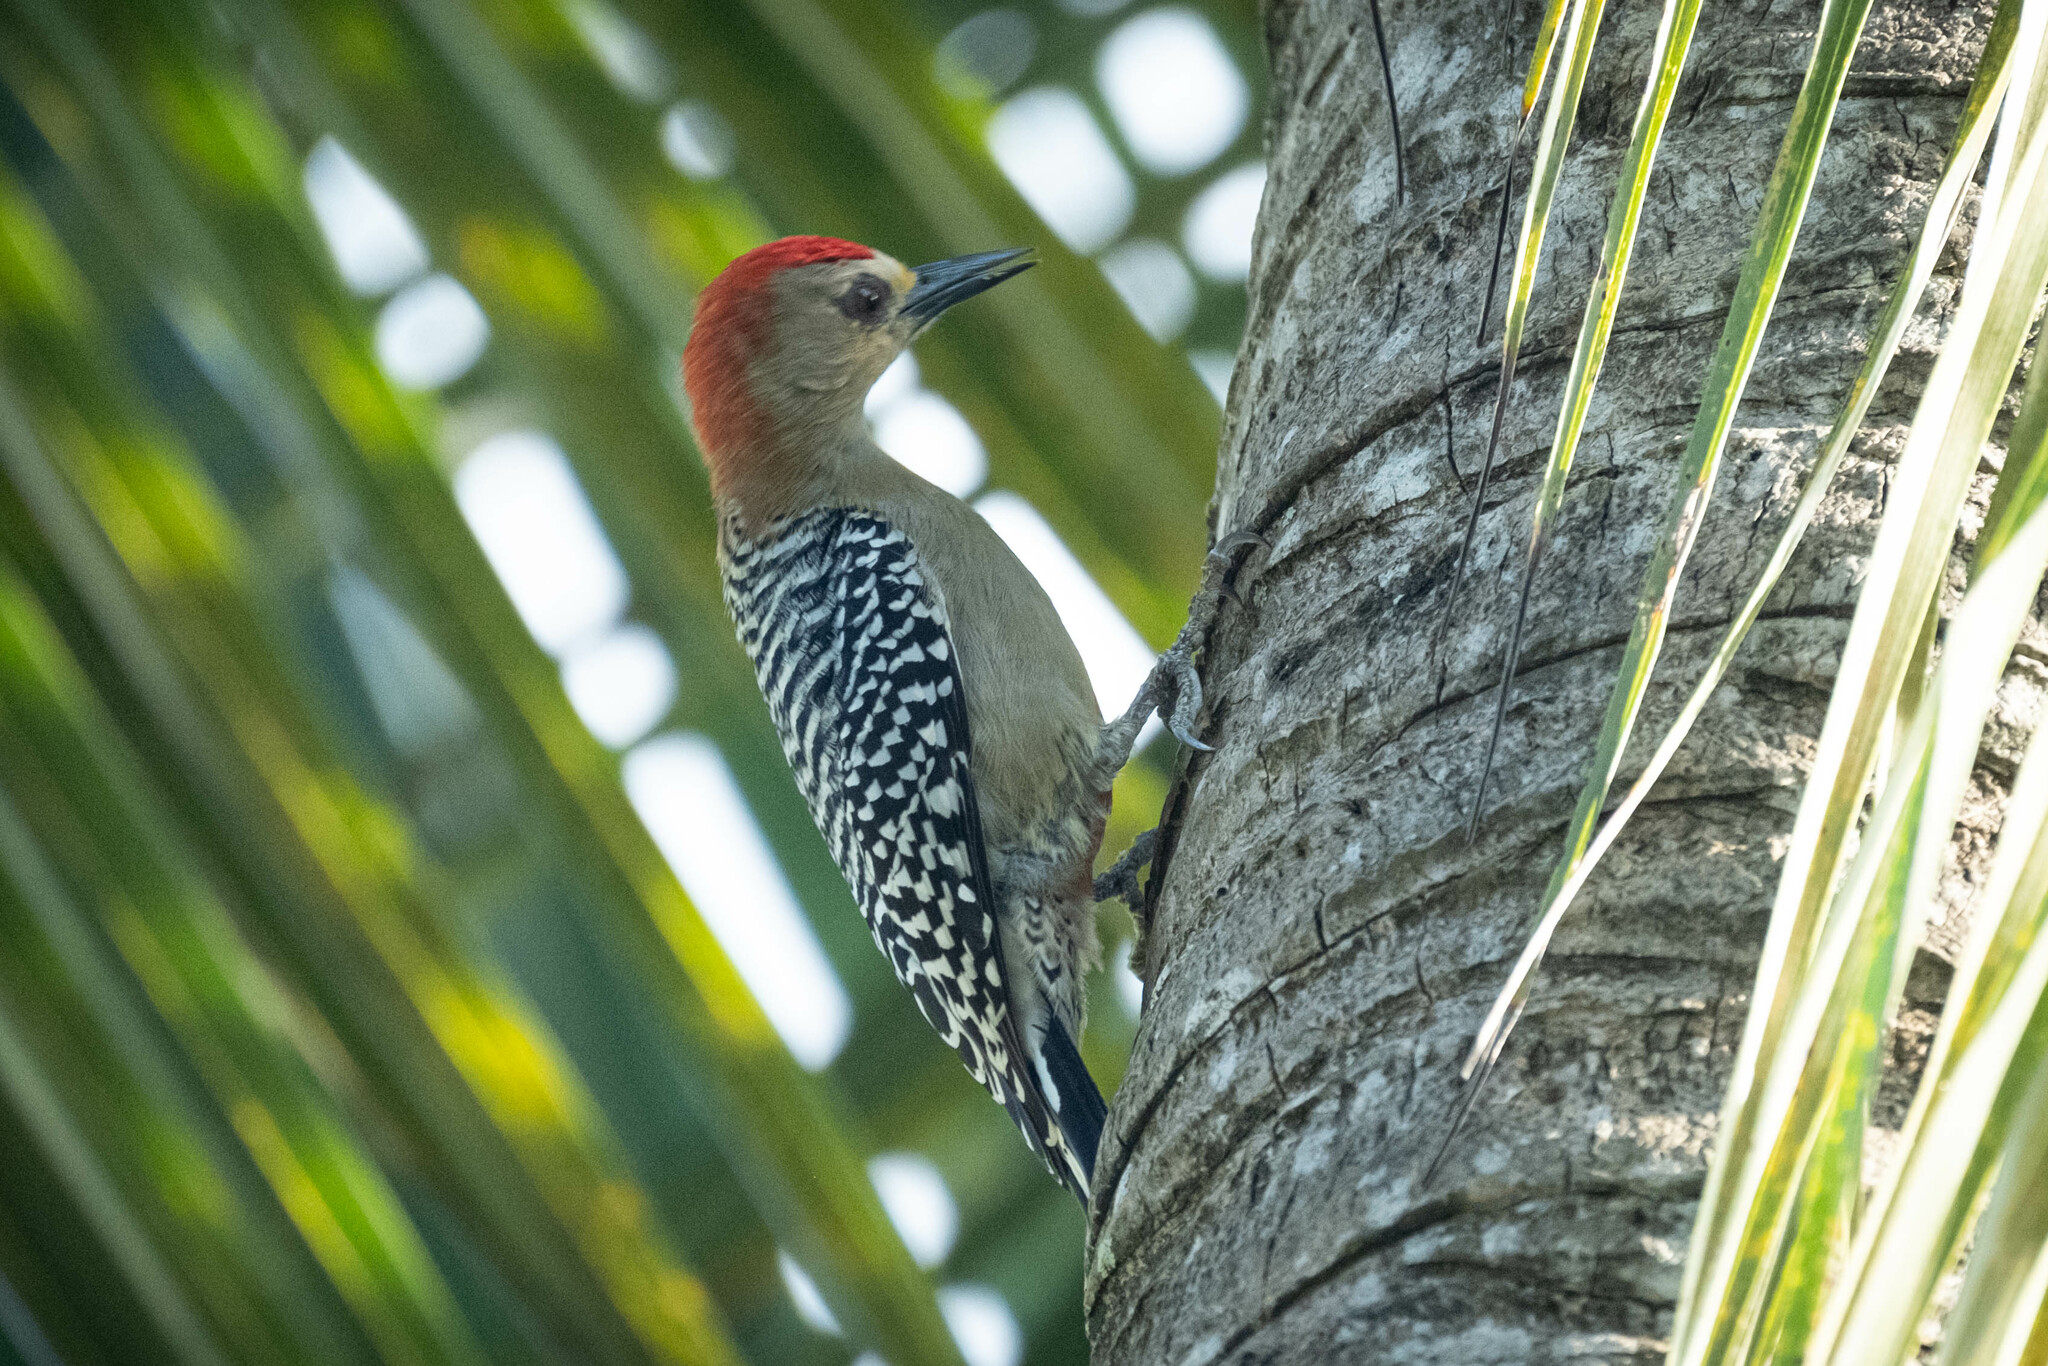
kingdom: Animalia
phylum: Chordata
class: Aves
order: Piciformes
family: Picidae
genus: Melanerpes
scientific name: Melanerpes rubricapillus
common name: Red-crowned woodpecker
